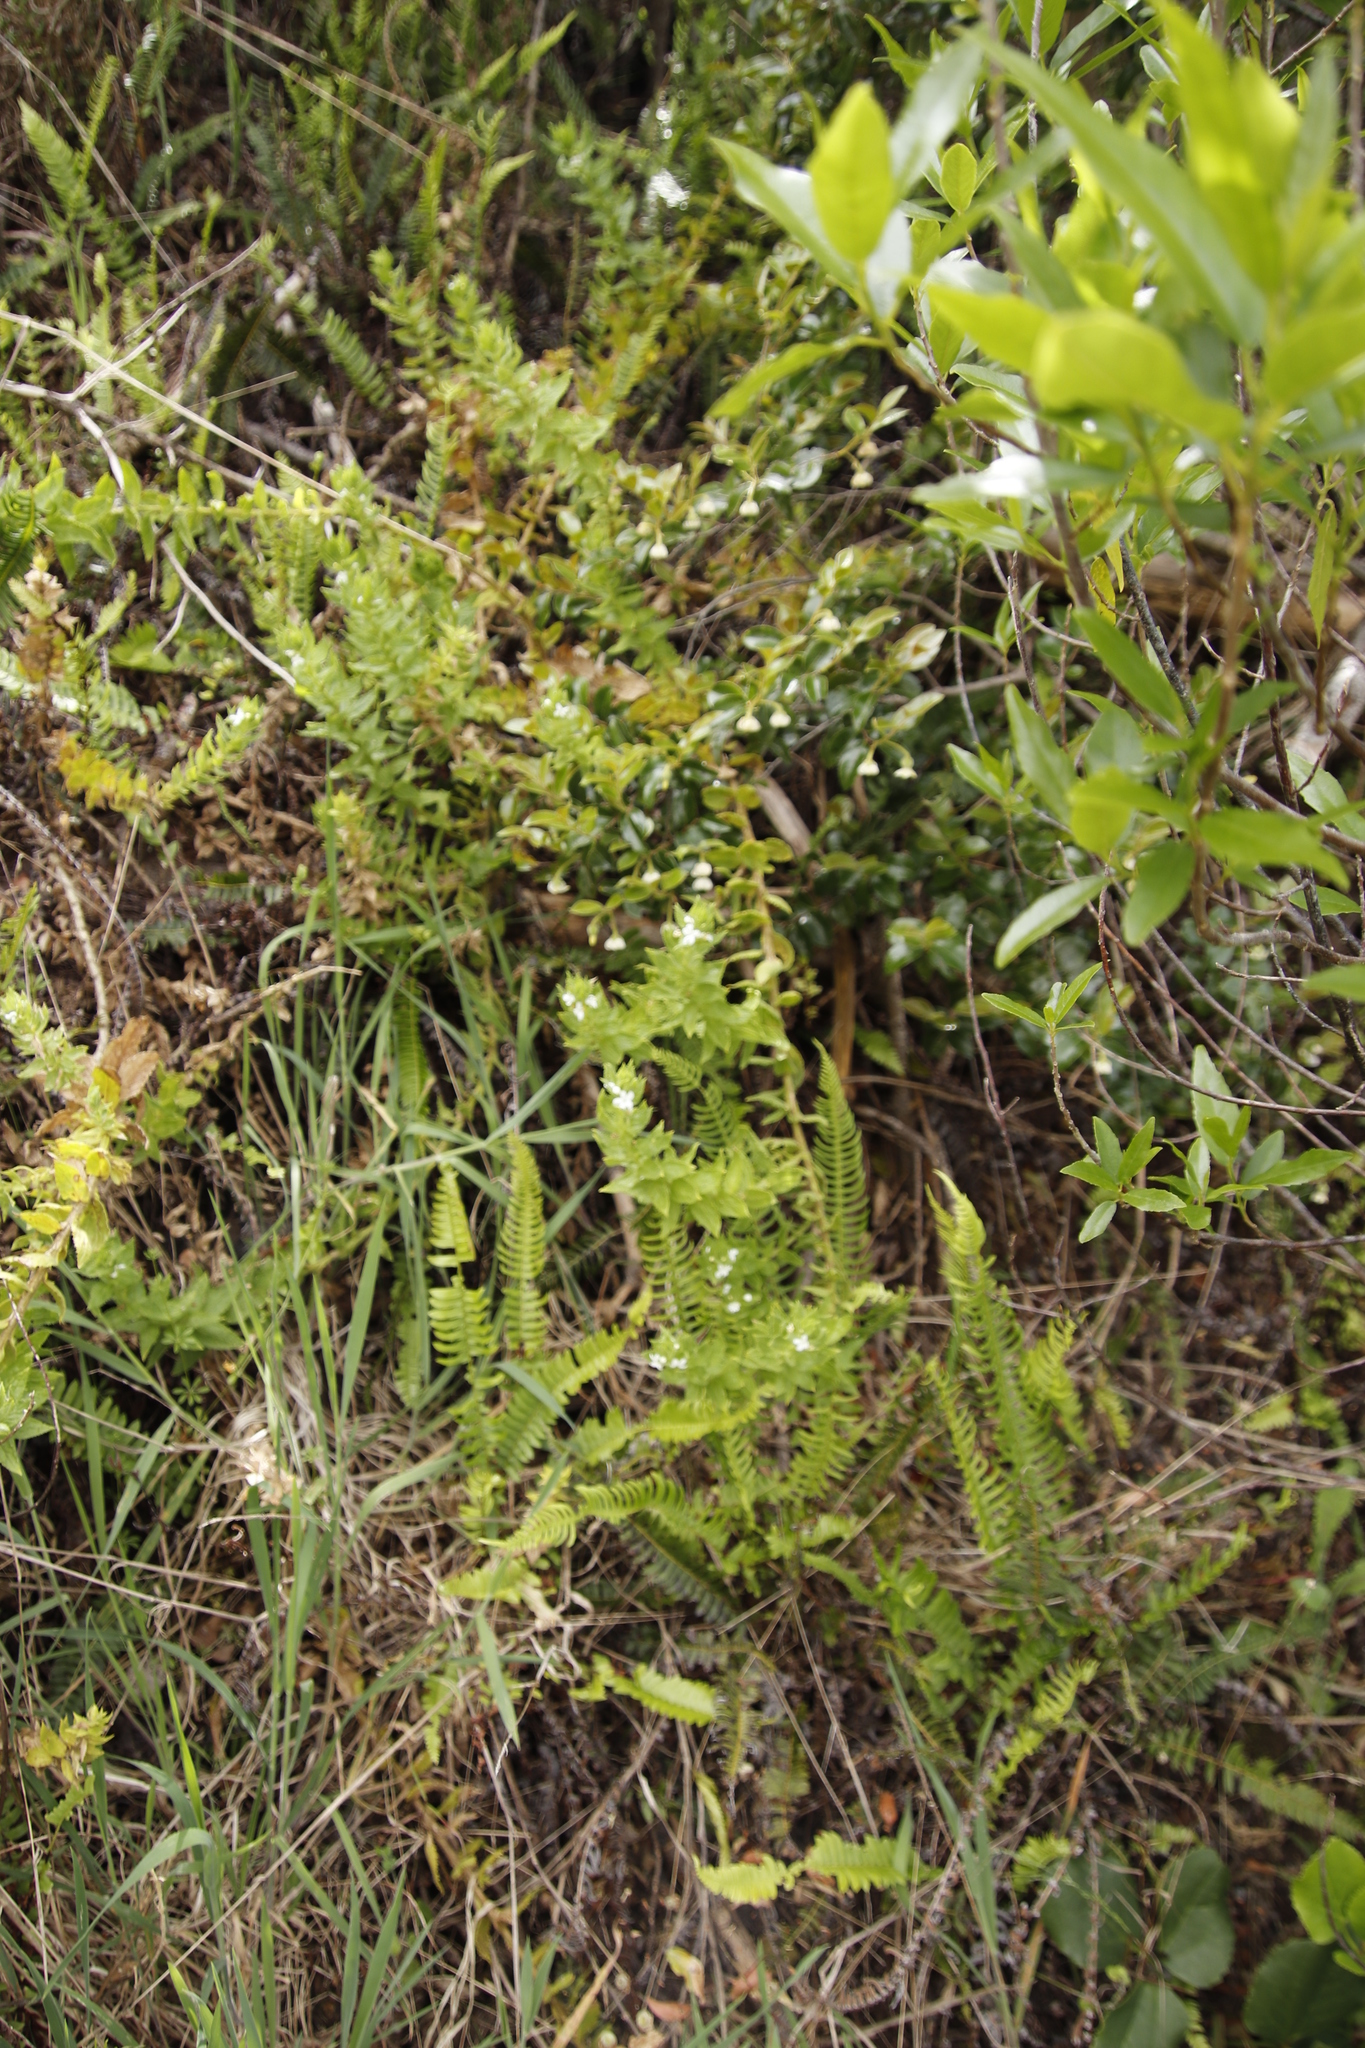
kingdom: Plantae
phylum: Tracheophyta
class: Magnoliopsida
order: Lamiales
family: Scrophulariaceae
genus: Oftia
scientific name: Oftia africana
